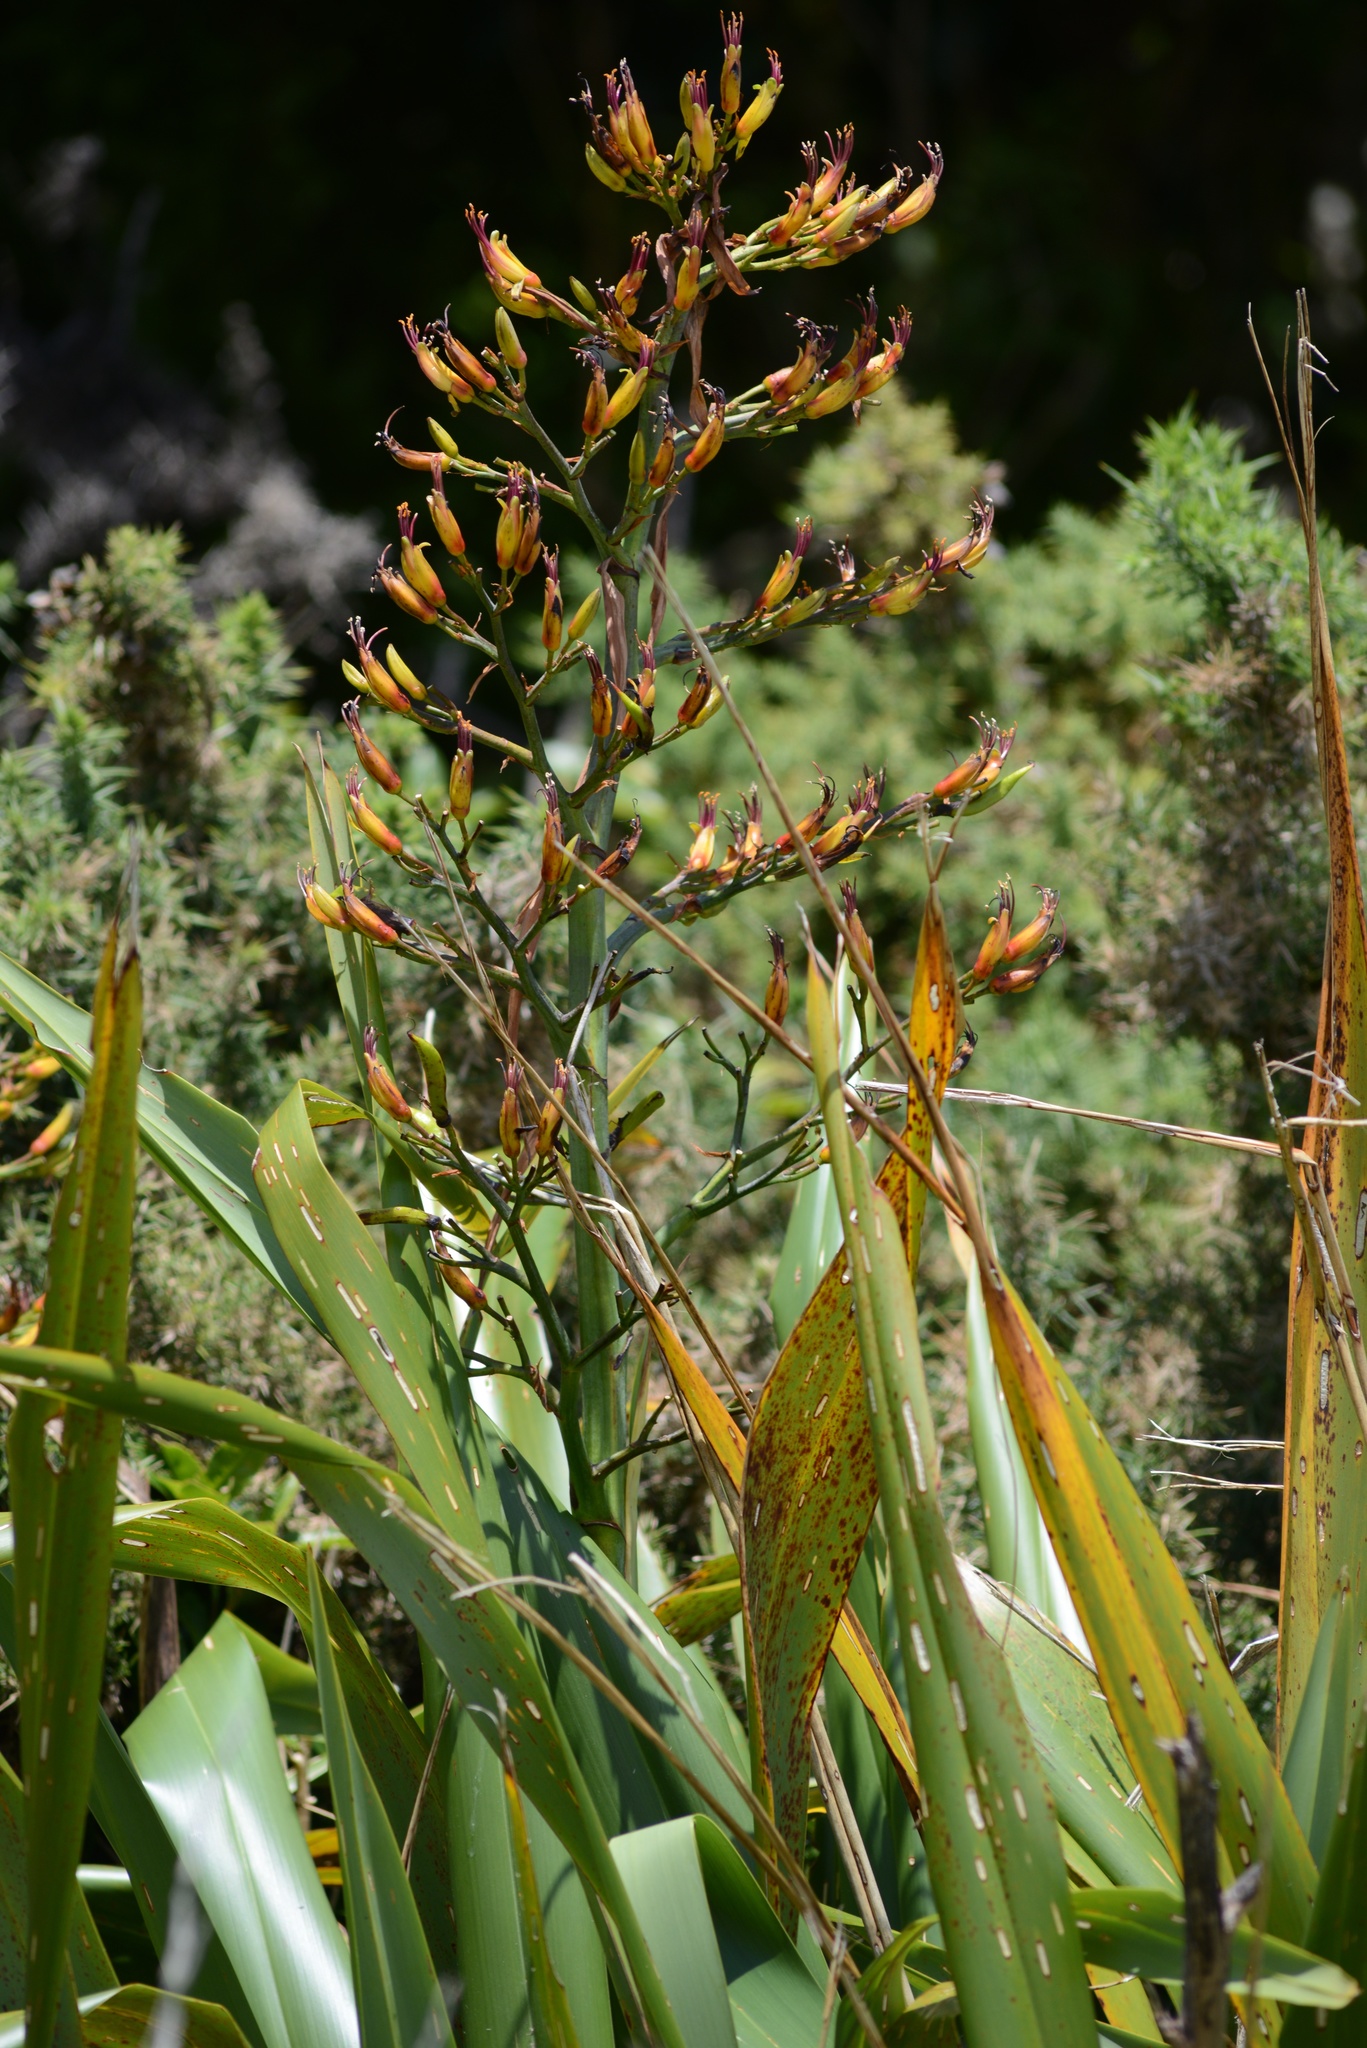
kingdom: Plantae
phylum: Tracheophyta
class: Liliopsida
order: Asparagales
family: Asphodelaceae
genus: Phormium
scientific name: Phormium colensoi
